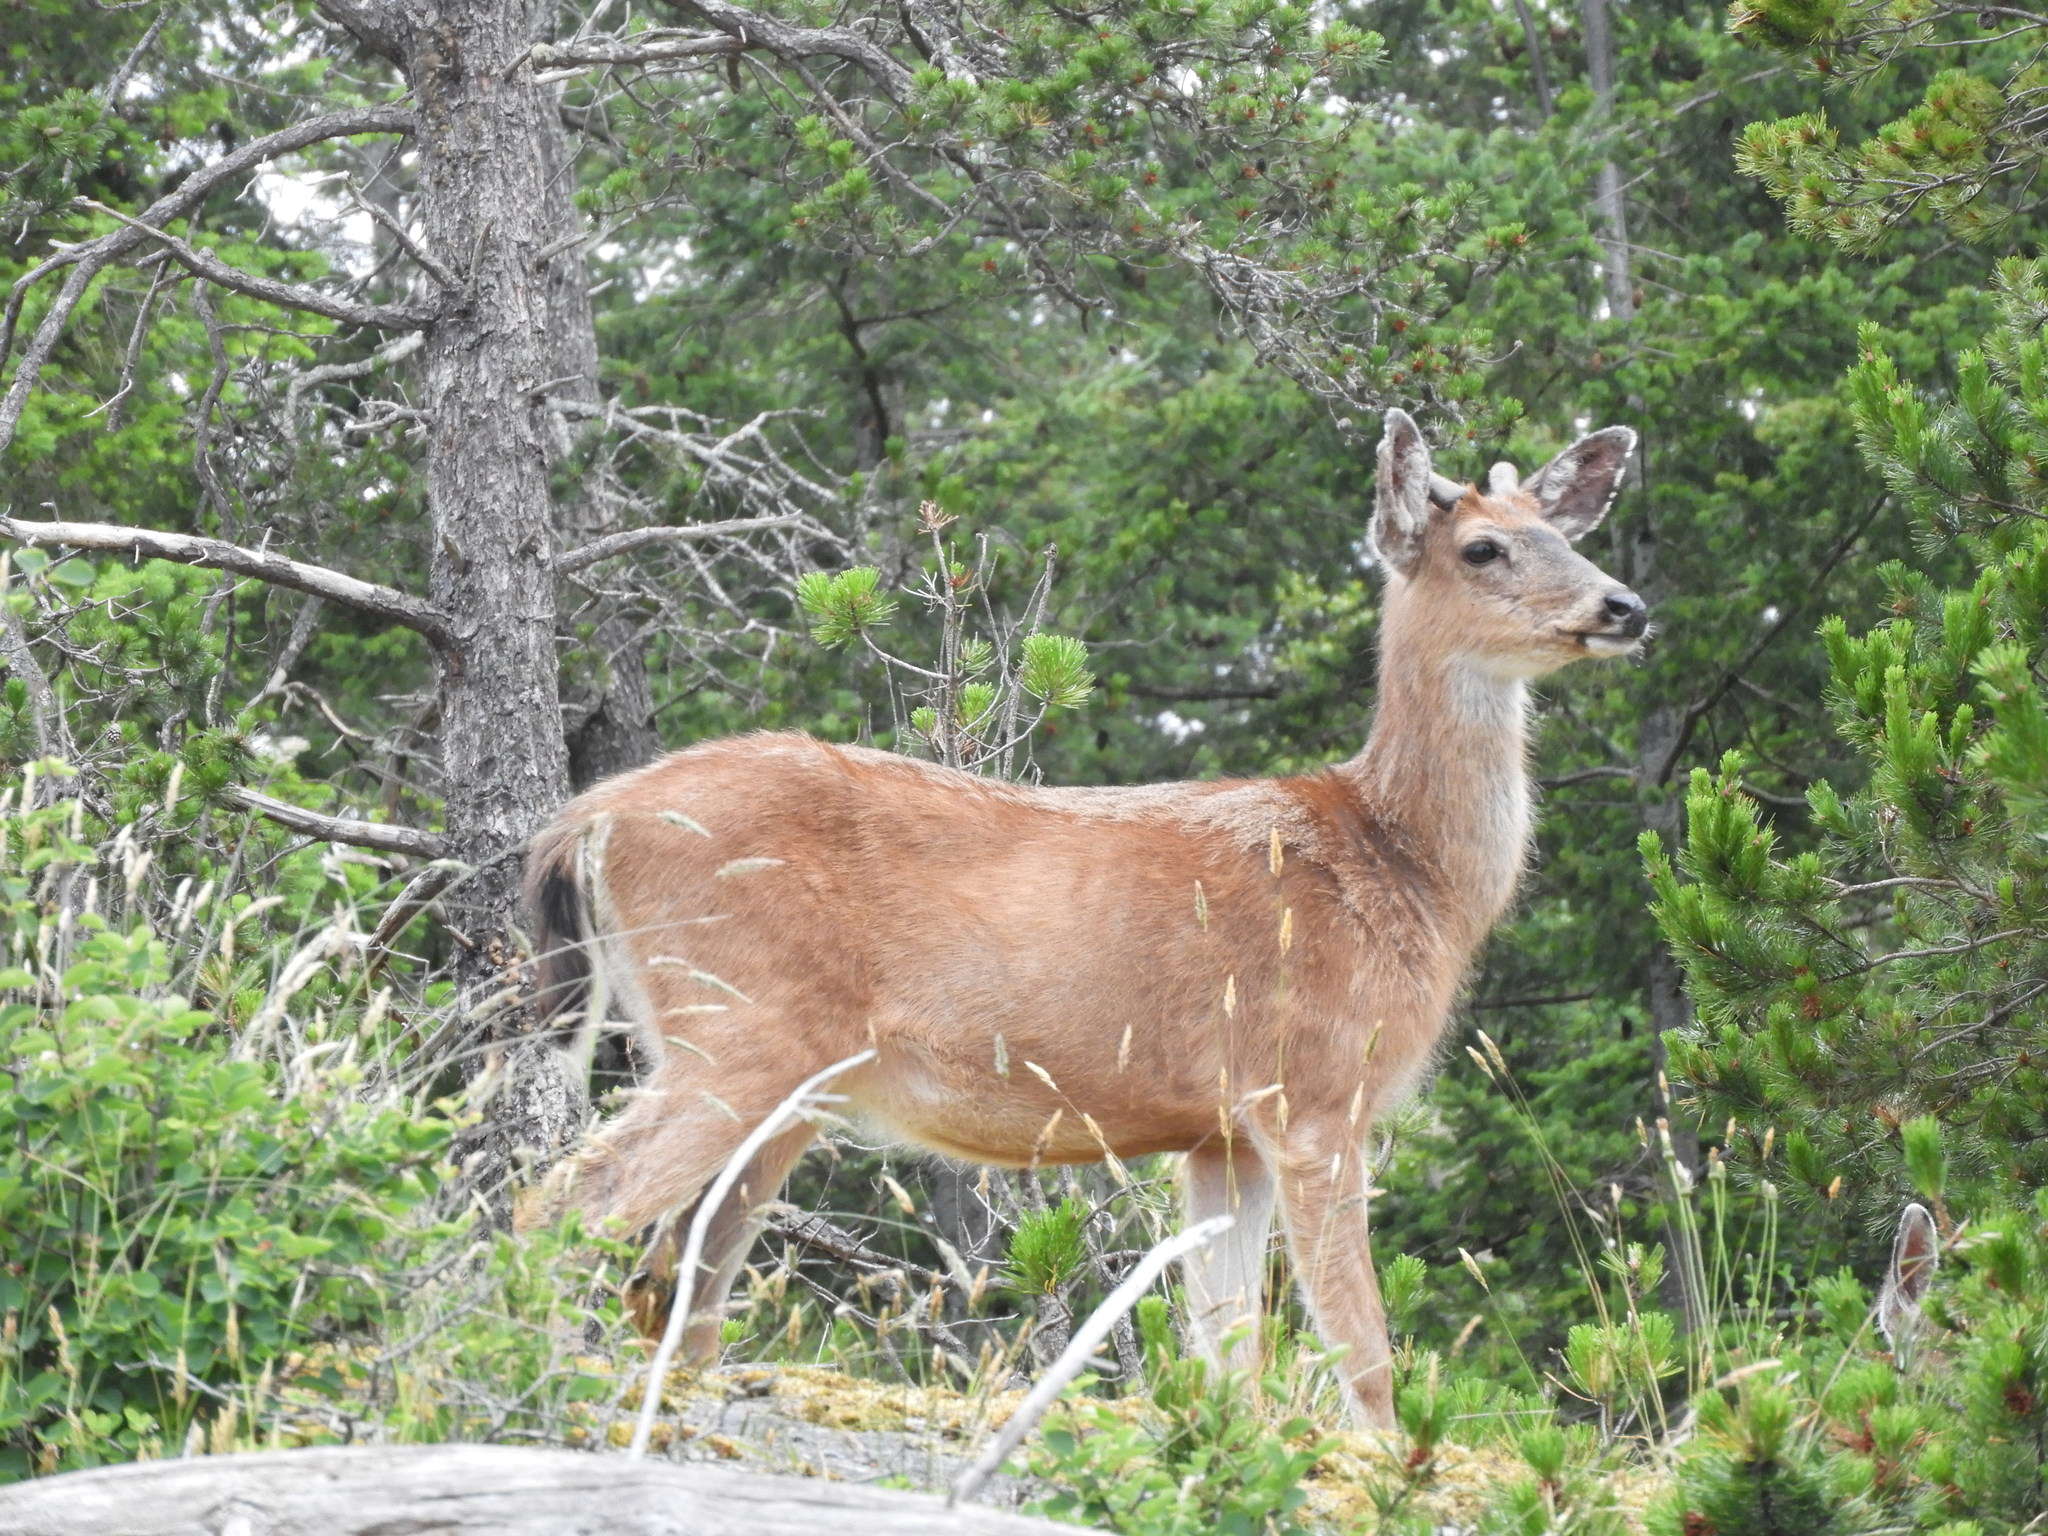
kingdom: Animalia
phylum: Chordata
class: Mammalia
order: Artiodactyla
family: Cervidae
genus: Odocoileus
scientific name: Odocoileus hemionus
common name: Mule deer
